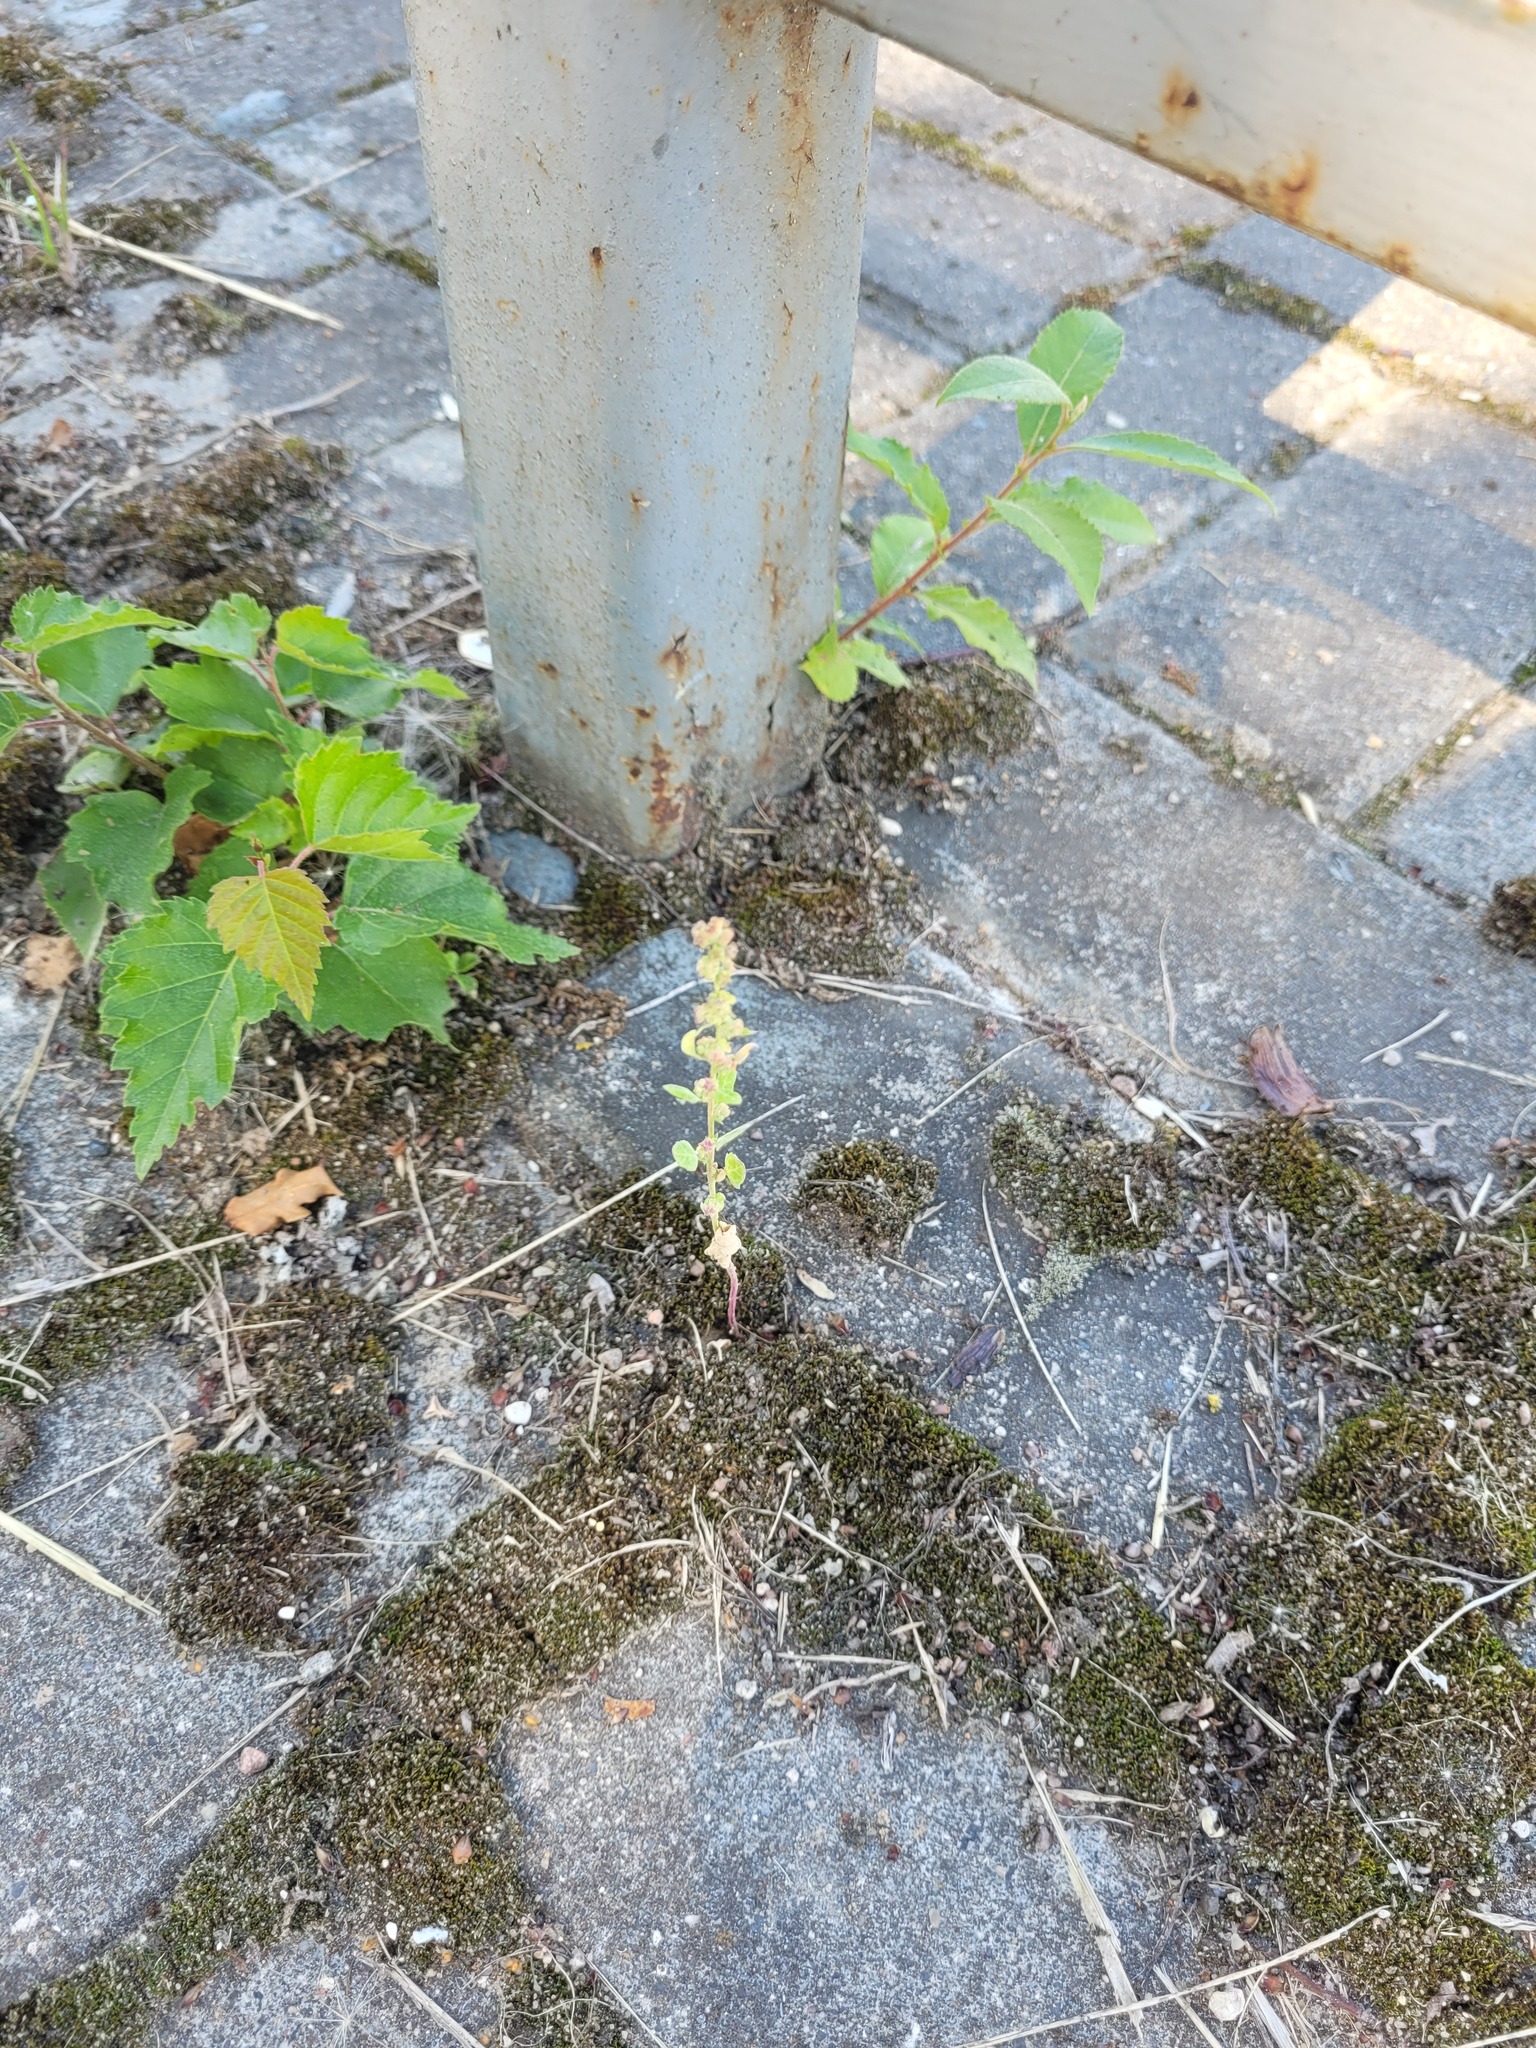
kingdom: Plantae
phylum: Tracheophyta
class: Magnoliopsida
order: Caryophyllales
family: Amaranthaceae
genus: Chenopodium
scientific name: Chenopodium album
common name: Fat-hen
